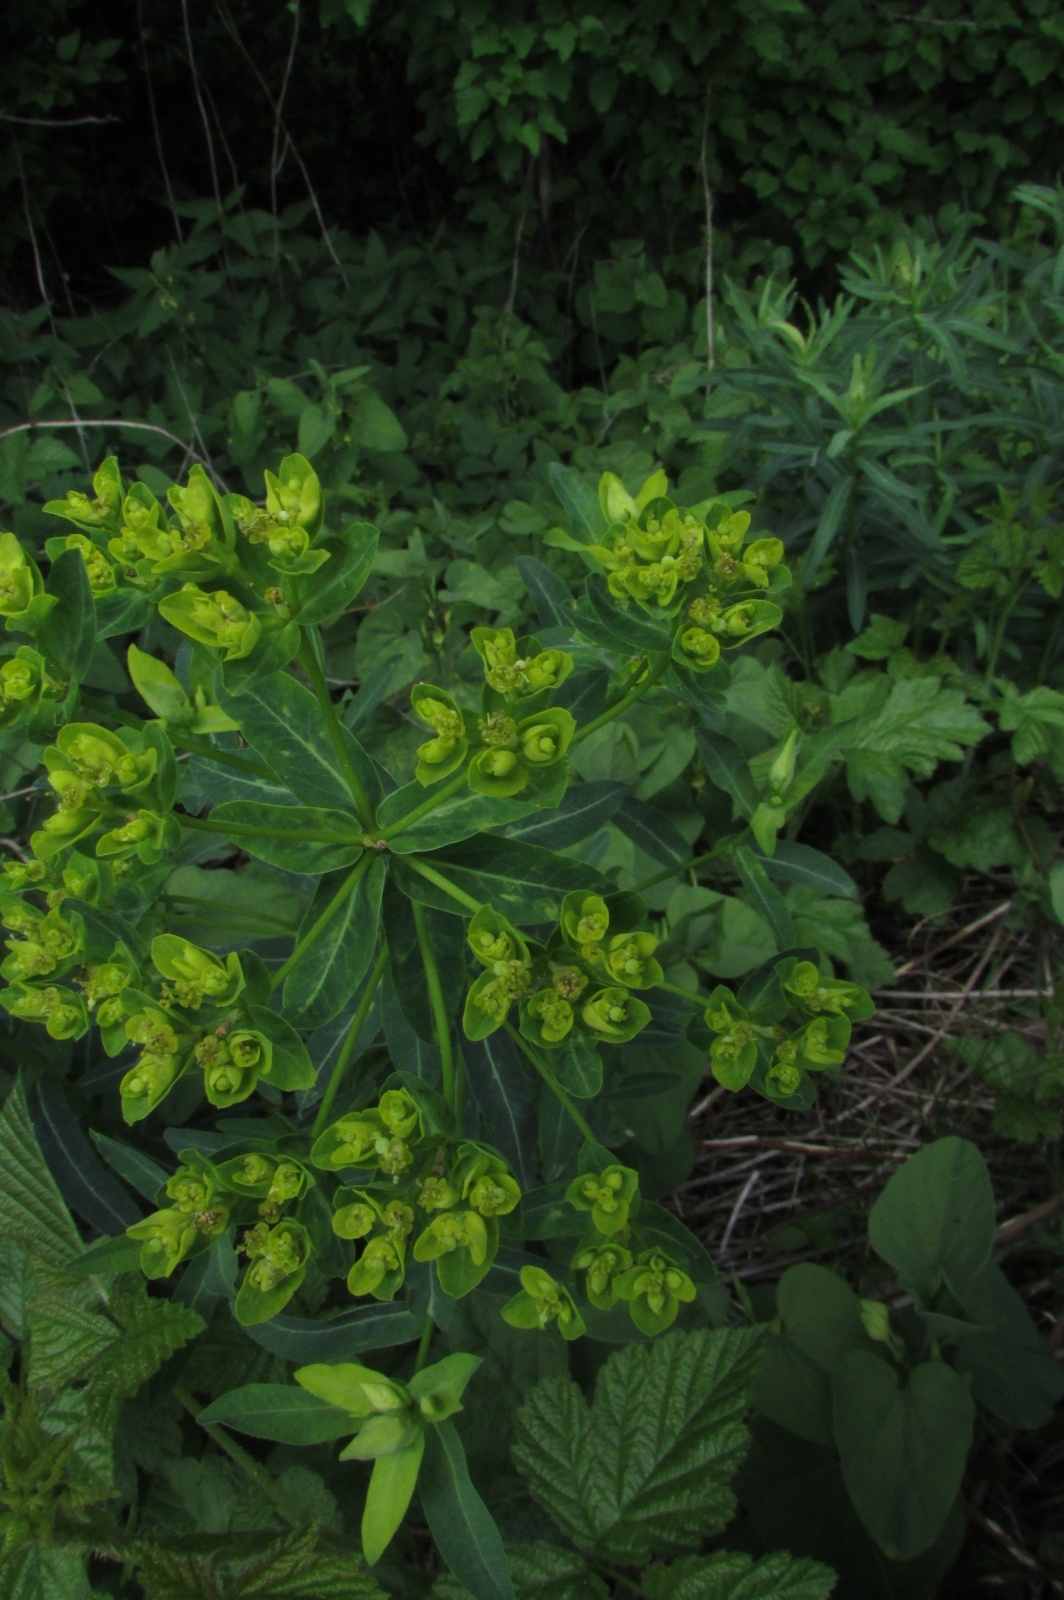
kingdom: Plantae
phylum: Tracheophyta
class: Magnoliopsida
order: Malpighiales
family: Euphorbiaceae
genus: Euphorbia
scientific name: Euphorbia semivillosa
